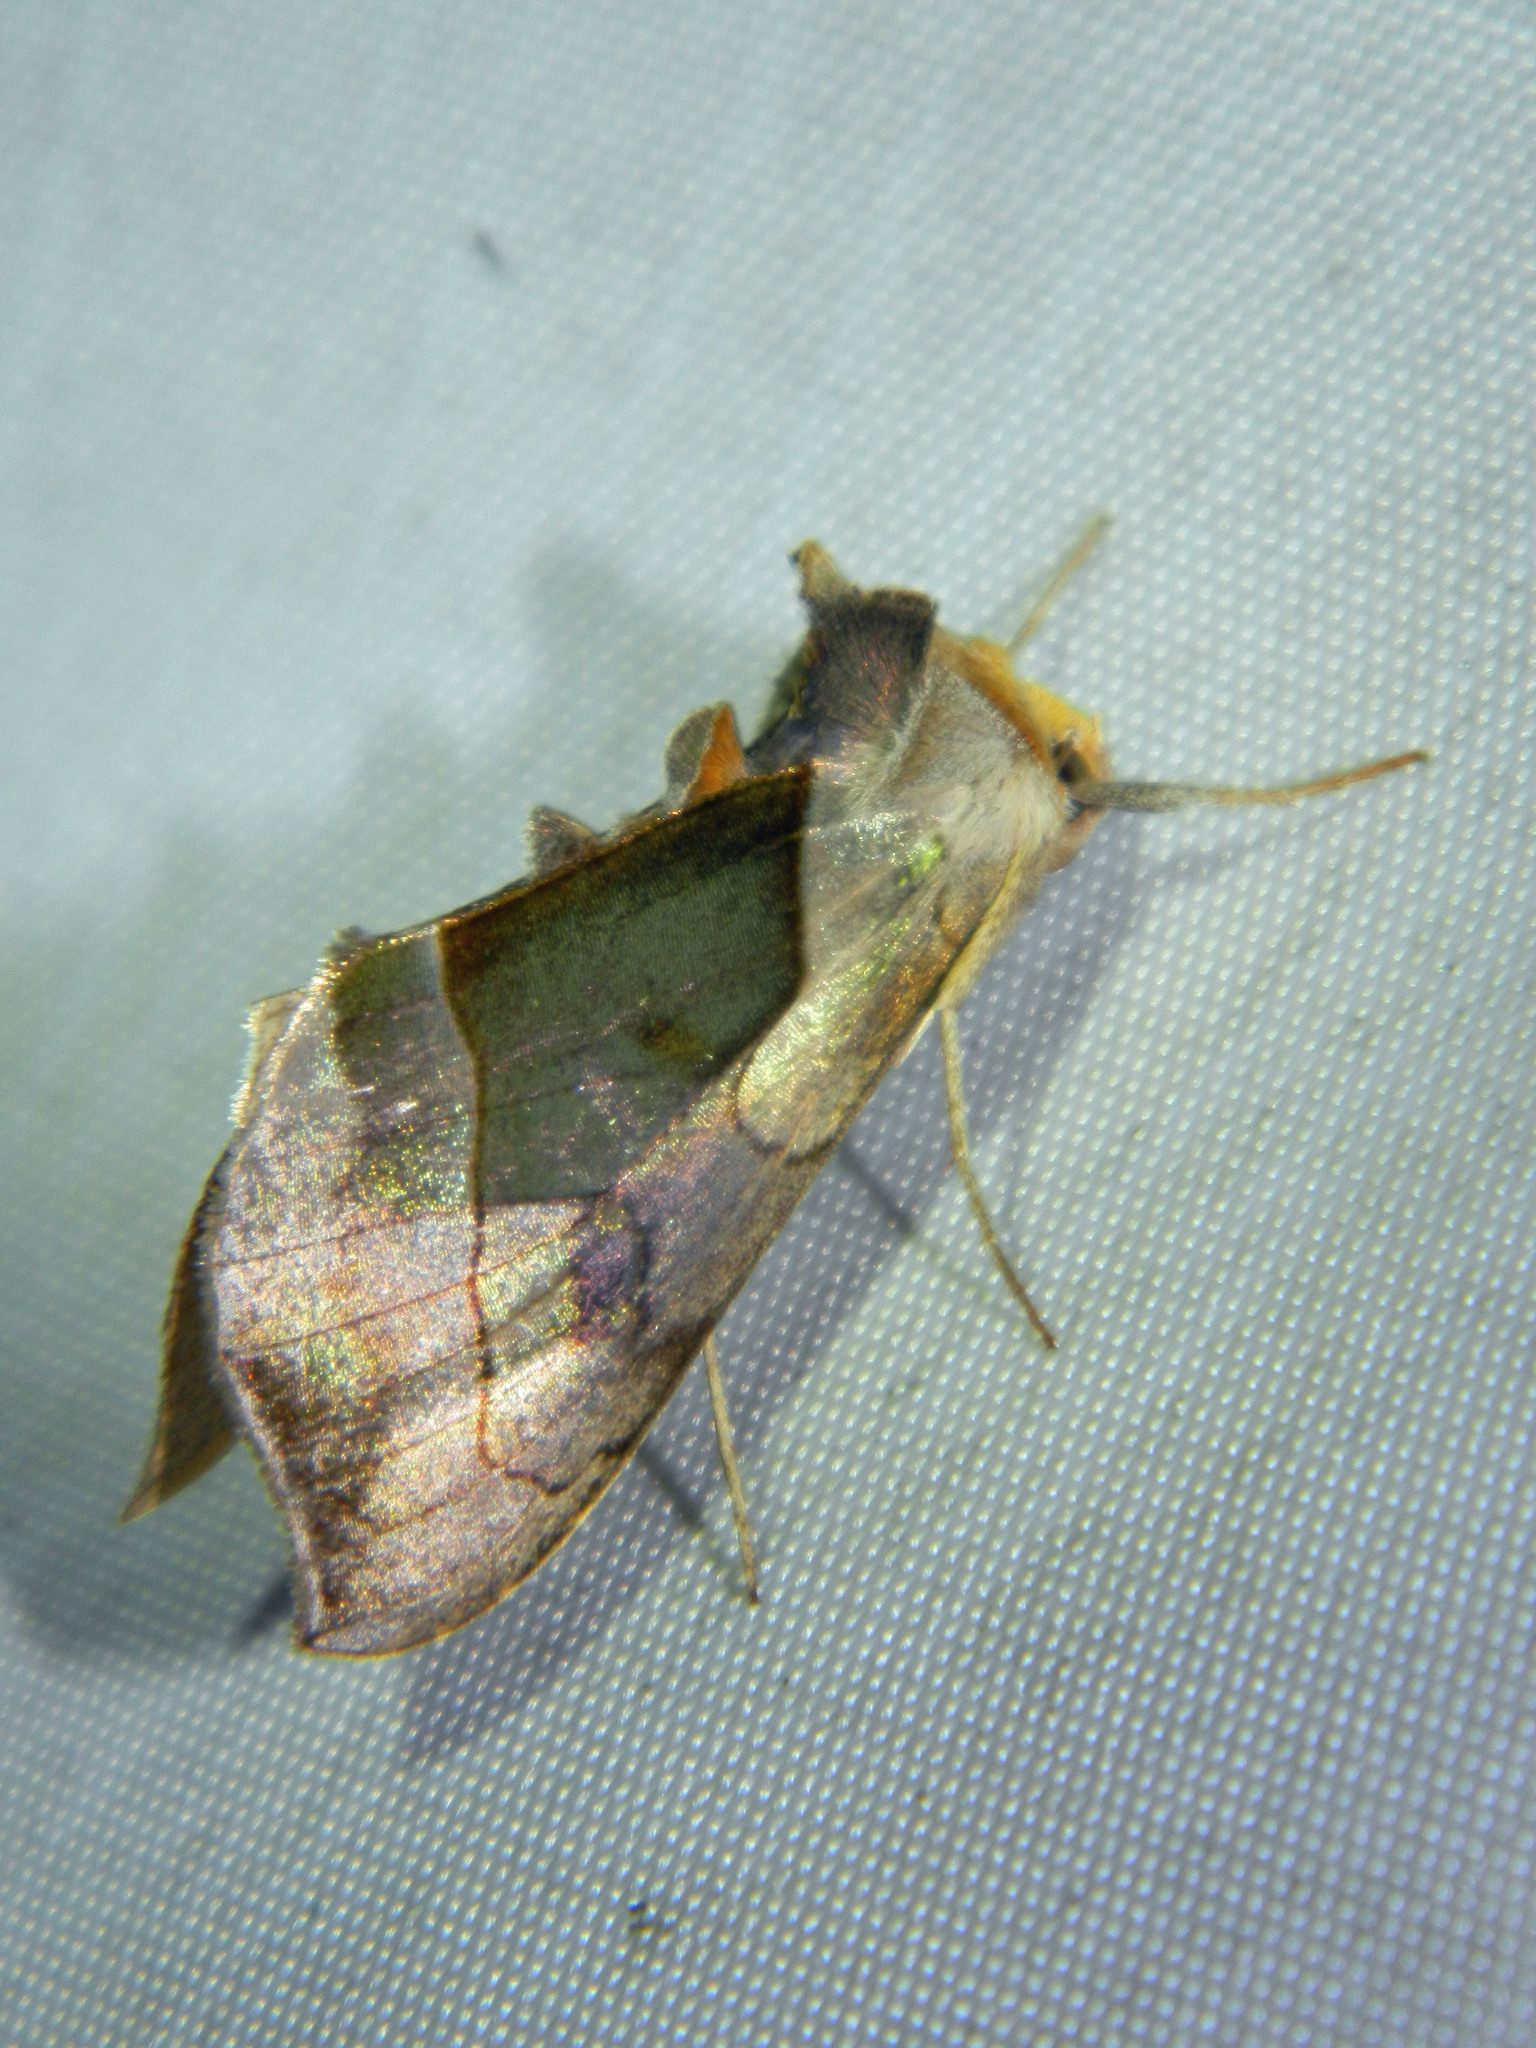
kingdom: Animalia
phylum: Arthropoda
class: Insecta
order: Lepidoptera
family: Noctuidae
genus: Diachrysia
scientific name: Diachrysia balluca
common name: Green-patched looper moth
